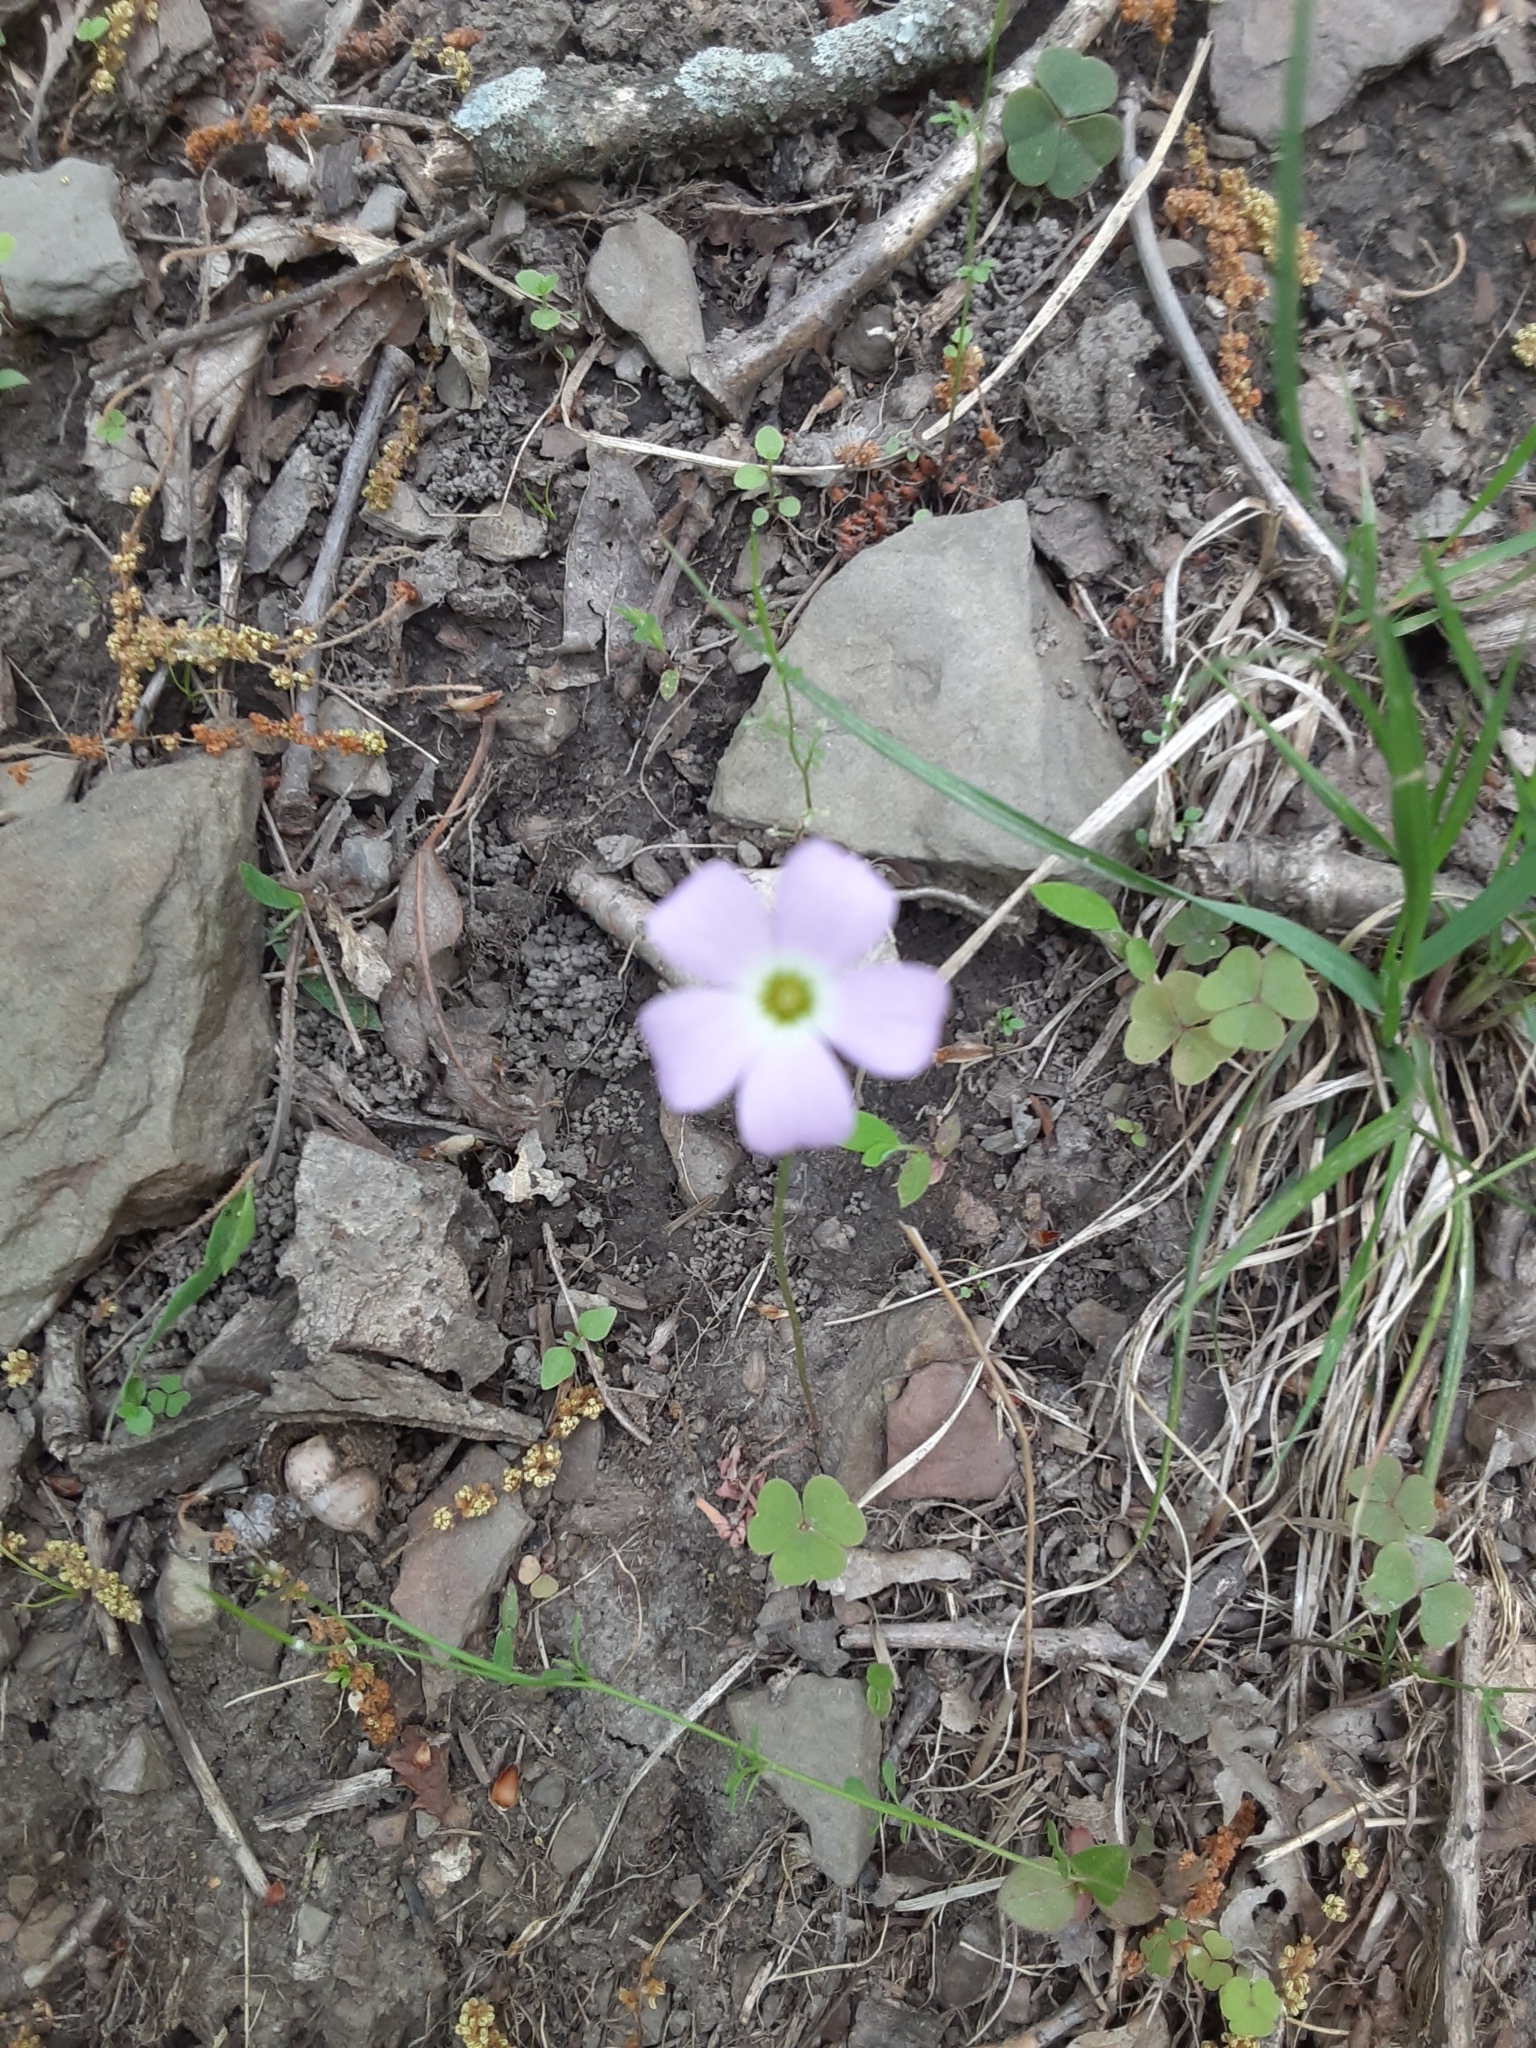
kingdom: Plantae
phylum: Tracheophyta
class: Magnoliopsida
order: Oxalidales
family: Oxalidaceae
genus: Oxalis
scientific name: Oxalis violacea
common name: Violet wood-sorrel
